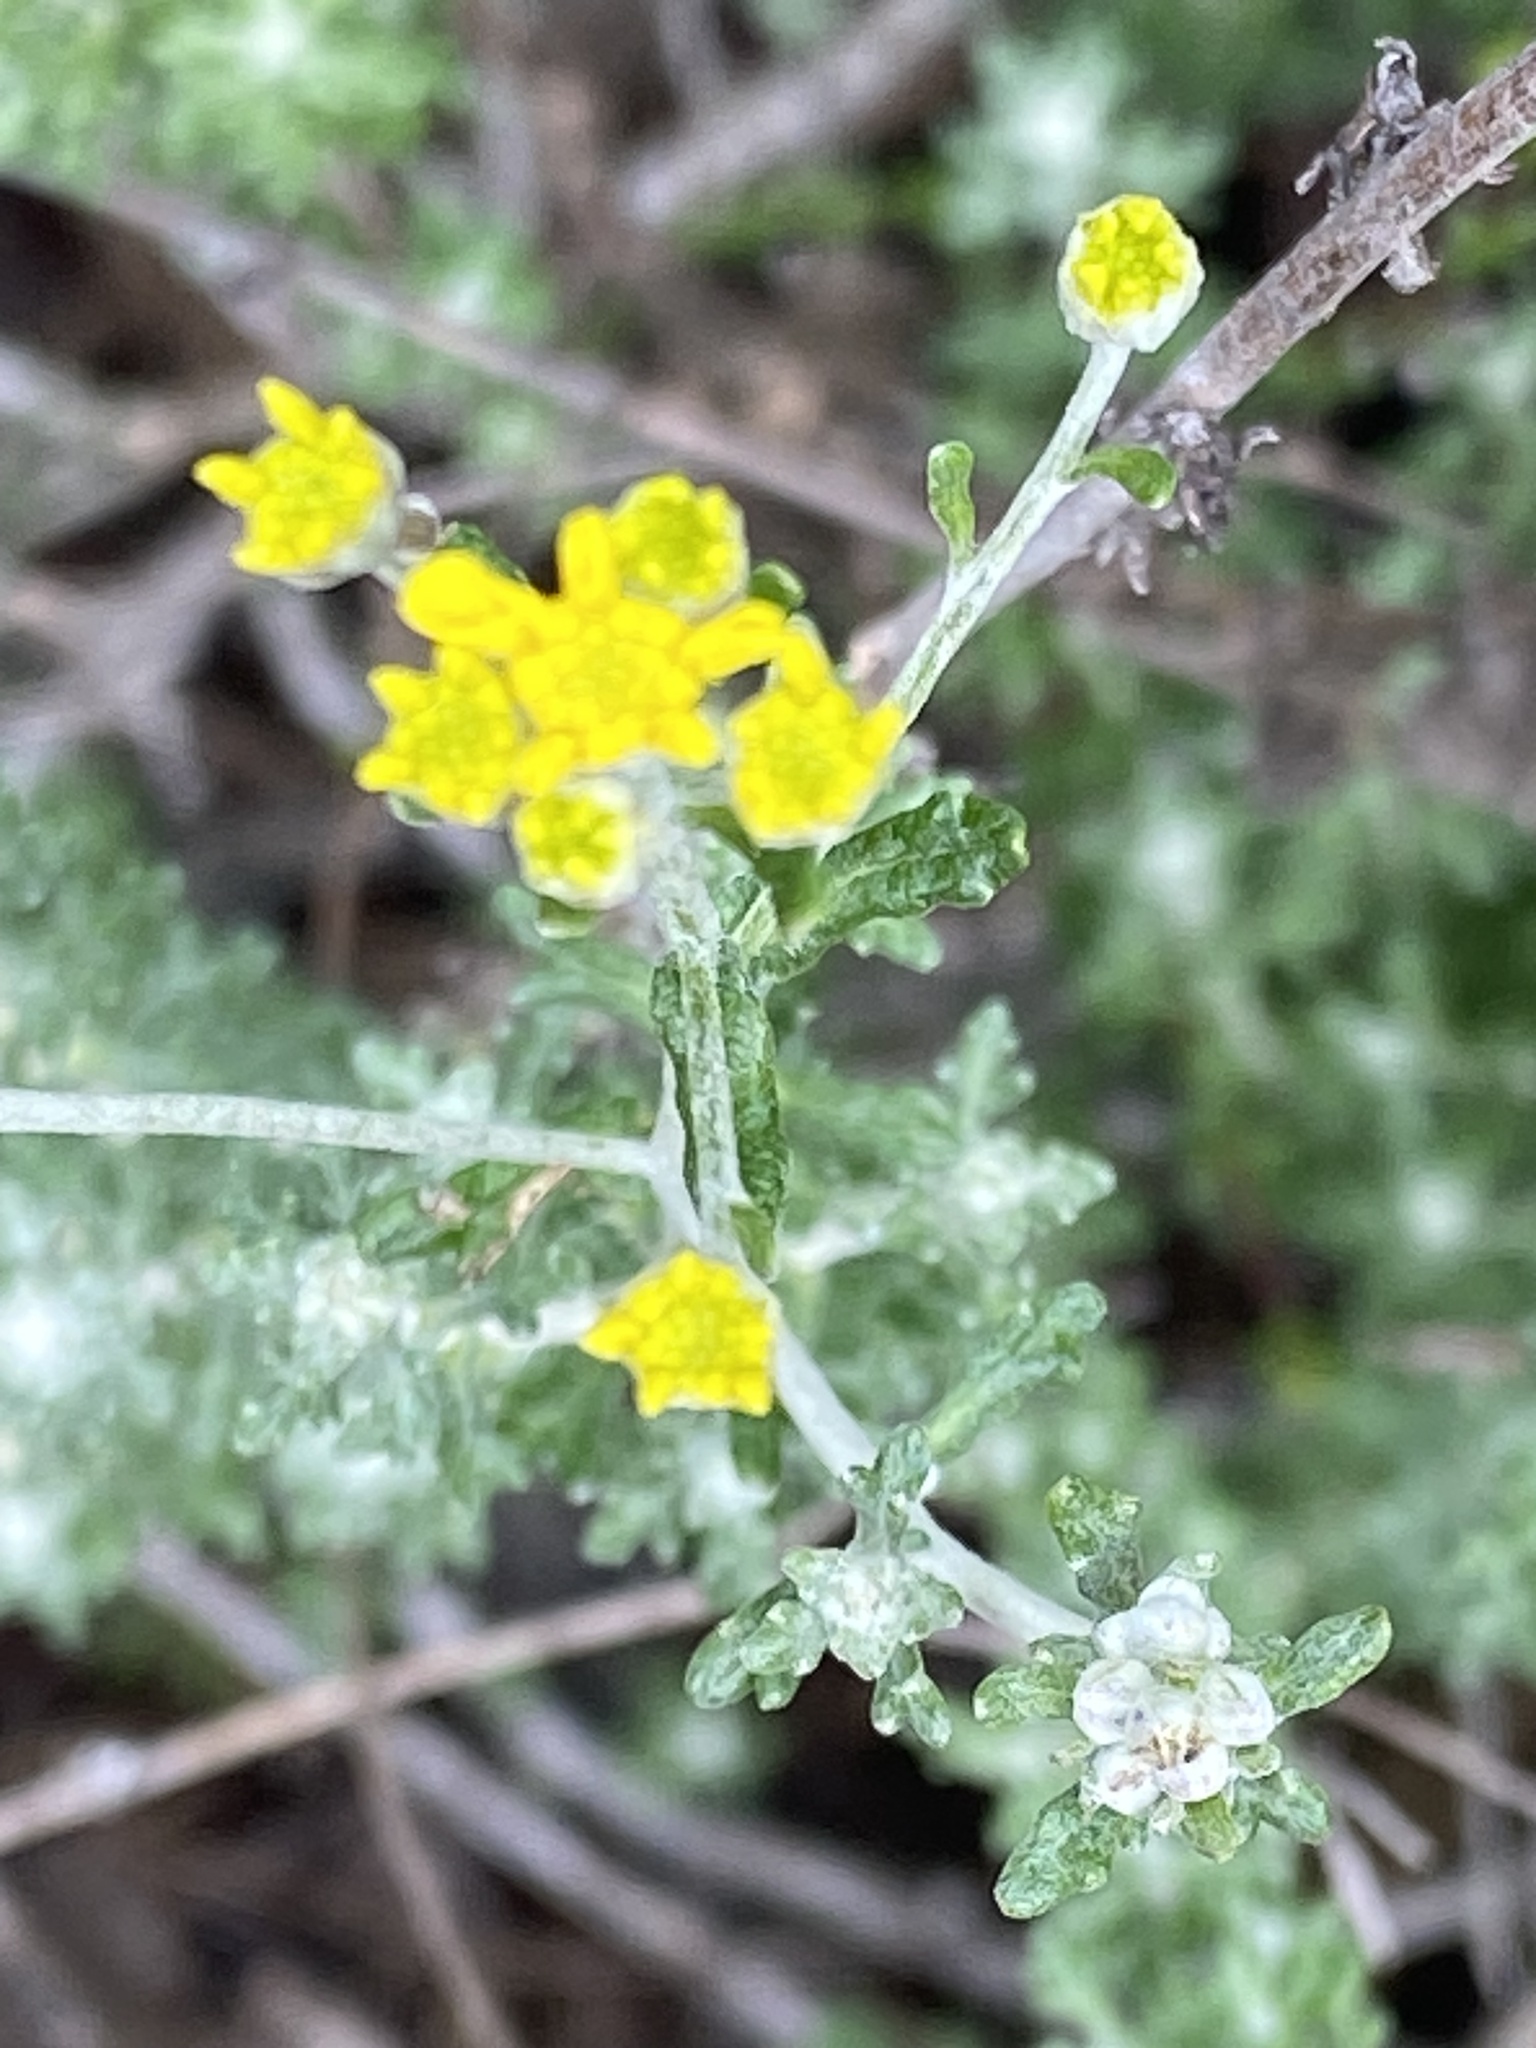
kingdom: Plantae
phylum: Tracheophyta
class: Magnoliopsida
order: Asterales
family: Asteraceae
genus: Eriophyllum
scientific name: Eriophyllum confertiflorum
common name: Golden-yarrow
